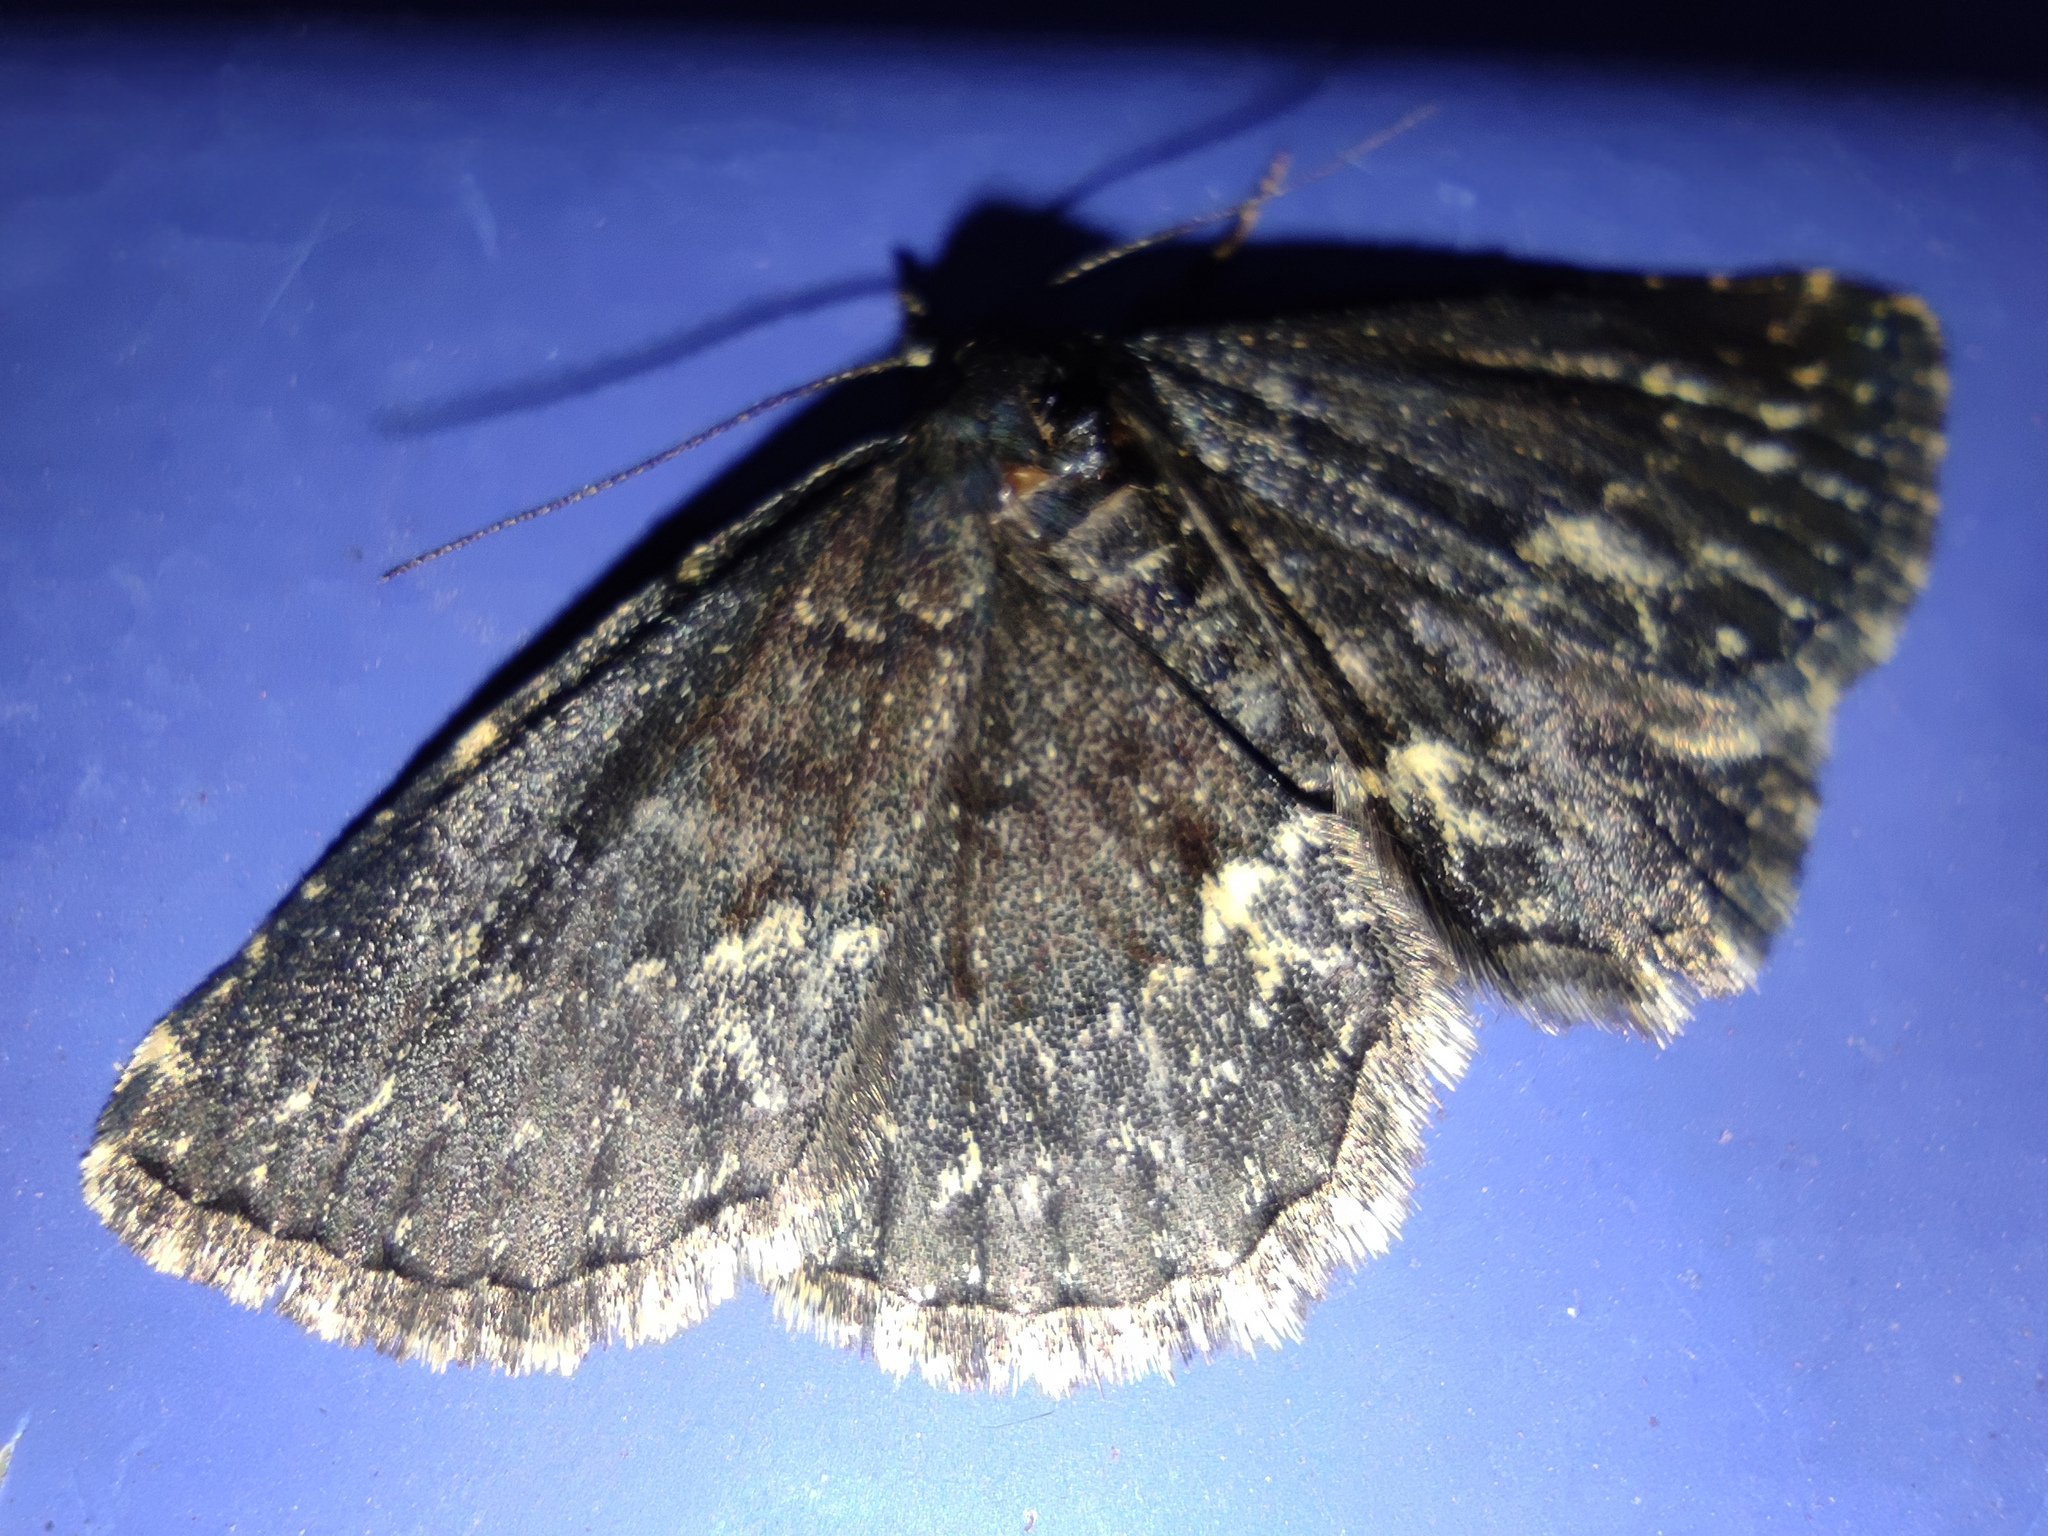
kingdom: Animalia
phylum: Arthropoda
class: Insecta
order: Lepidoptera
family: Erebidae
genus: Parascotia
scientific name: Parascotia fuliginaria
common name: Waved black
